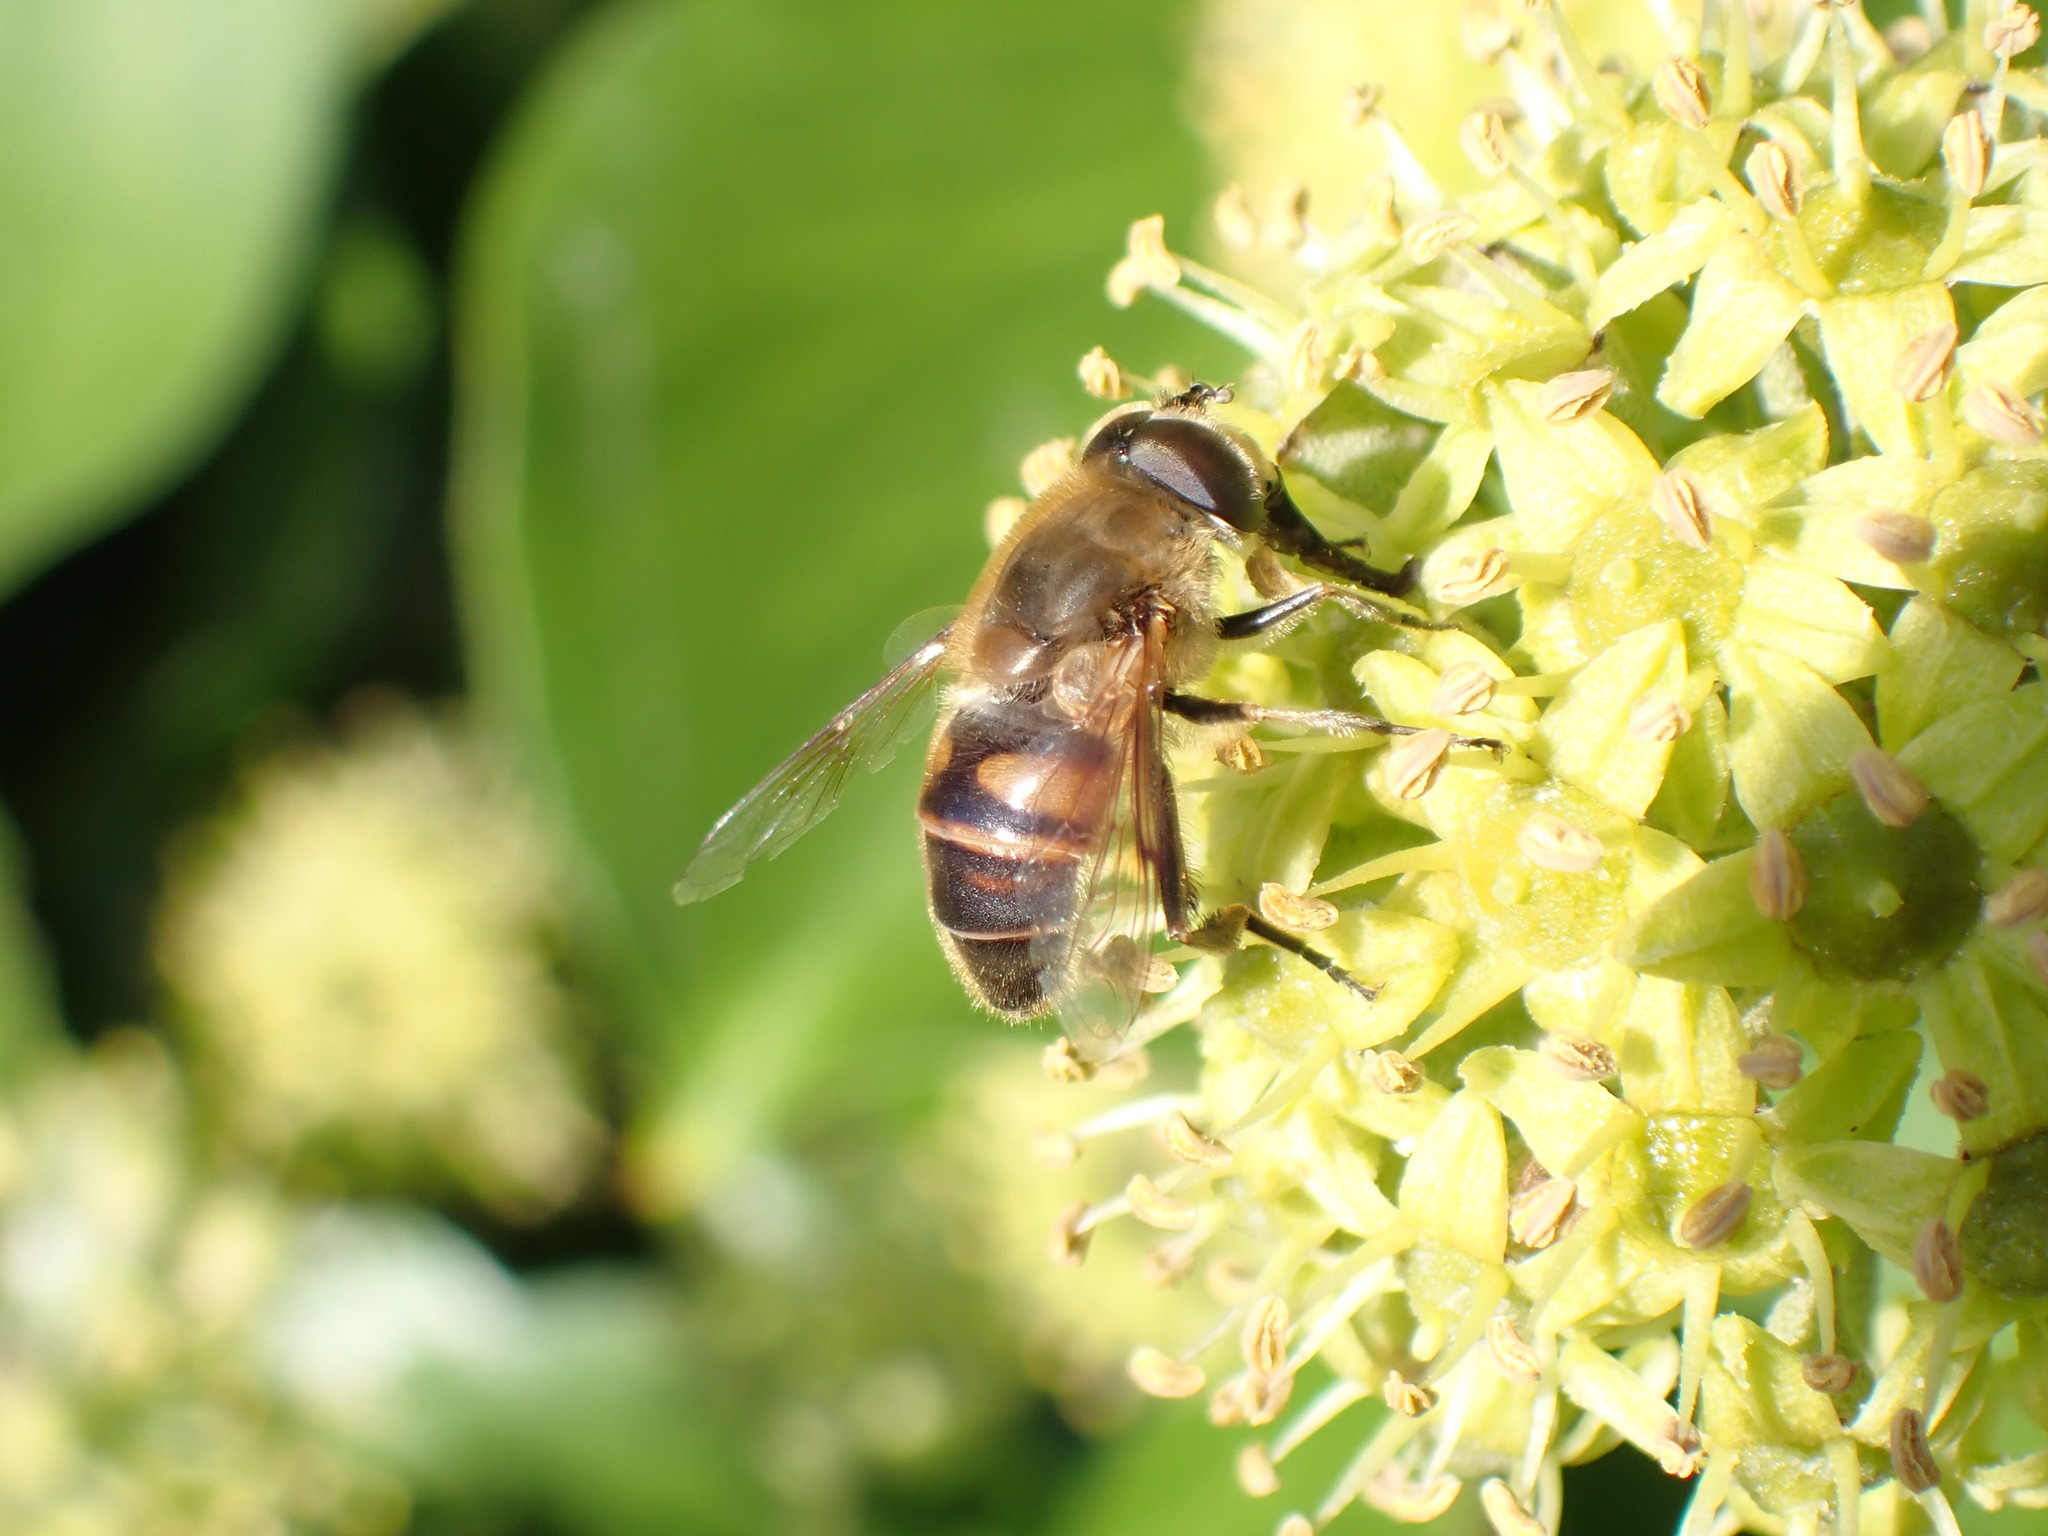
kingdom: Animalia
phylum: Arthropoda
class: Insecta
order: Diptera
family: Syrphidae
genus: Eristalis
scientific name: Eristalis tenax
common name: Drone fly
